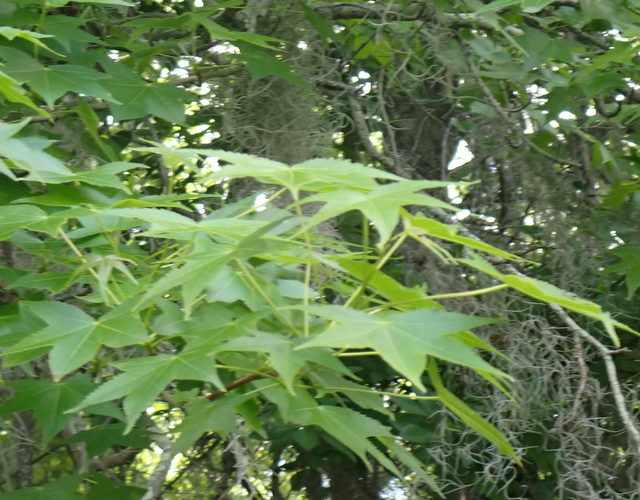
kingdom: Plantae
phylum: Tracheophyta
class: Magnoliopsida
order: Saxifragales
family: Altingiaceae
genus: Liquidambar
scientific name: Liquidambar styraciflua
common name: Sweet gum
